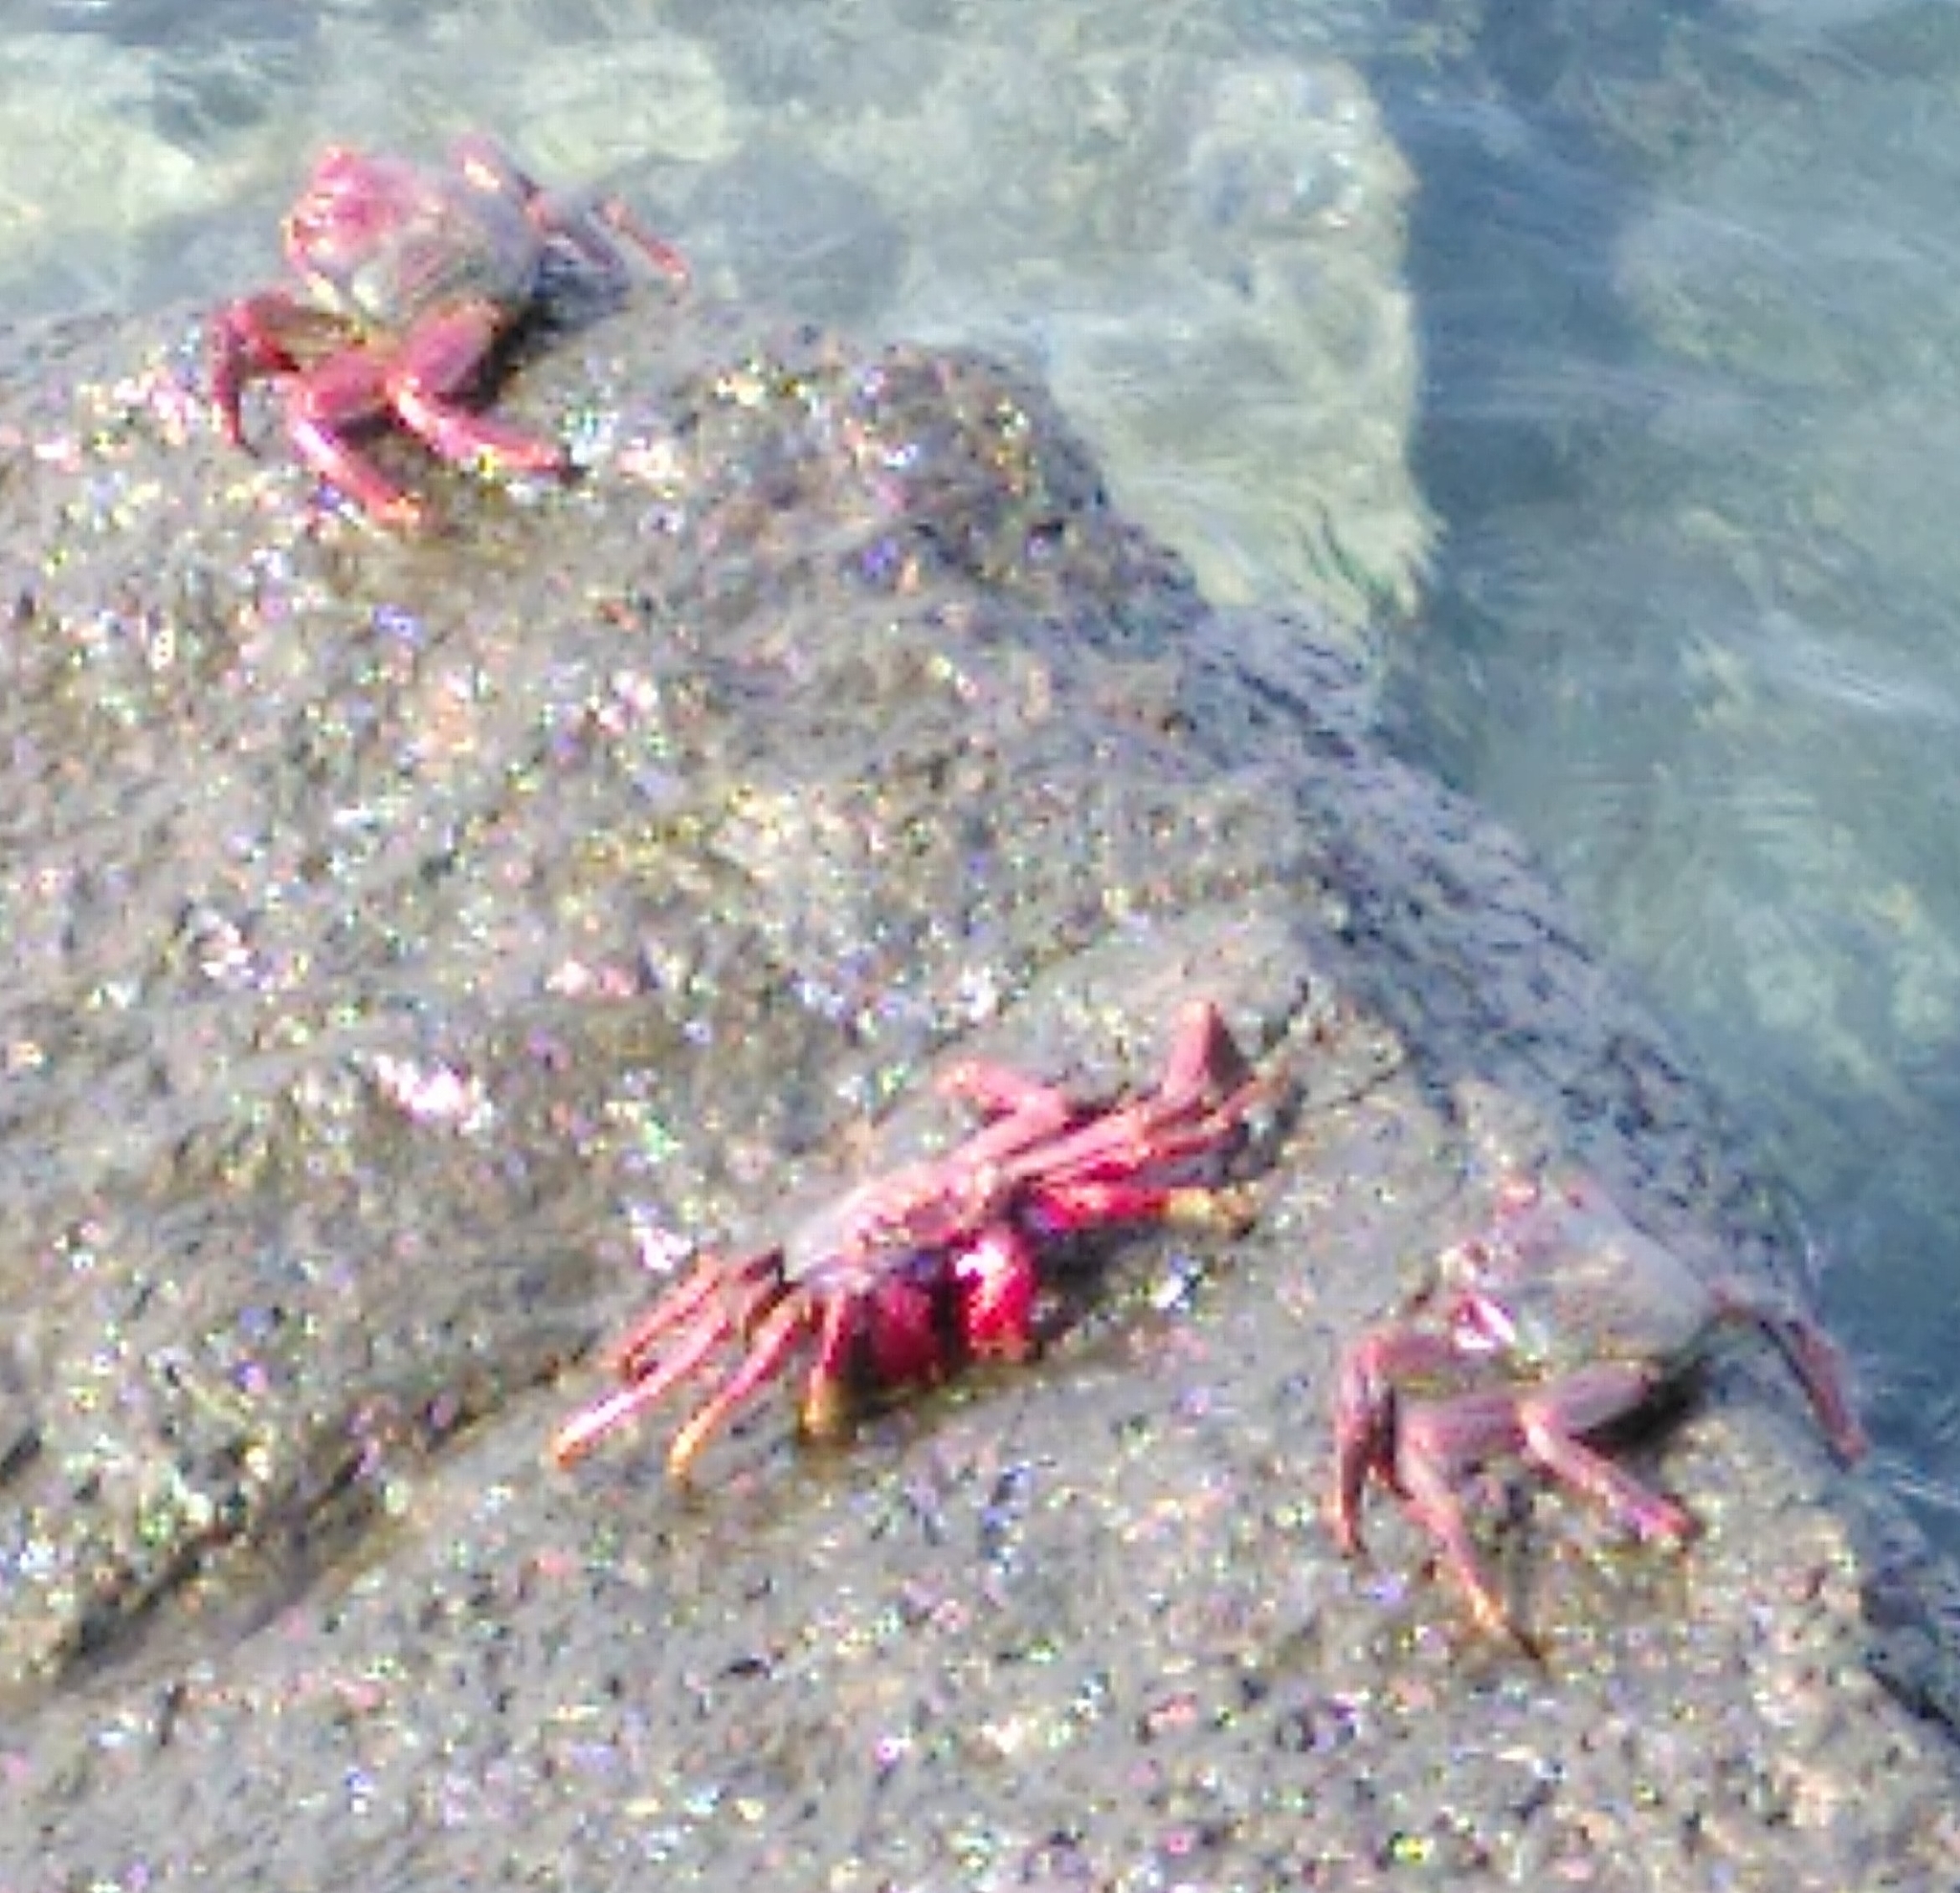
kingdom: Animalia
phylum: Arthropoda
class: Malacostraca
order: Decapoda
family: Grapsidae
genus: Grapsus
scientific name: Grapsus adscensionis
